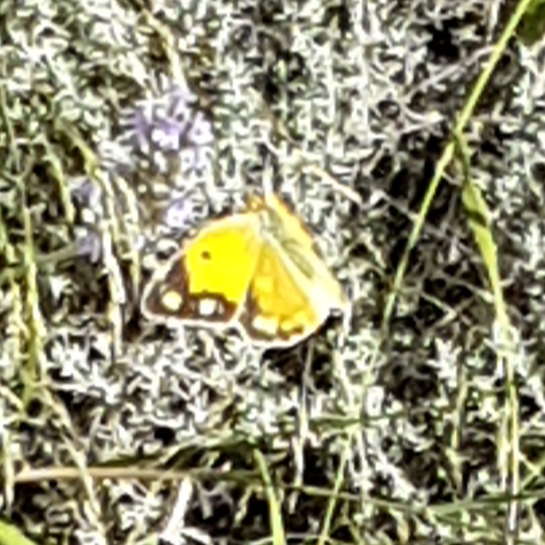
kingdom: Animalia
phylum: Arthropoda
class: Insecta
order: Lepidoptera
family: Pieridae
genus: Colias
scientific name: Colias croceus
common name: Clouded yellow
